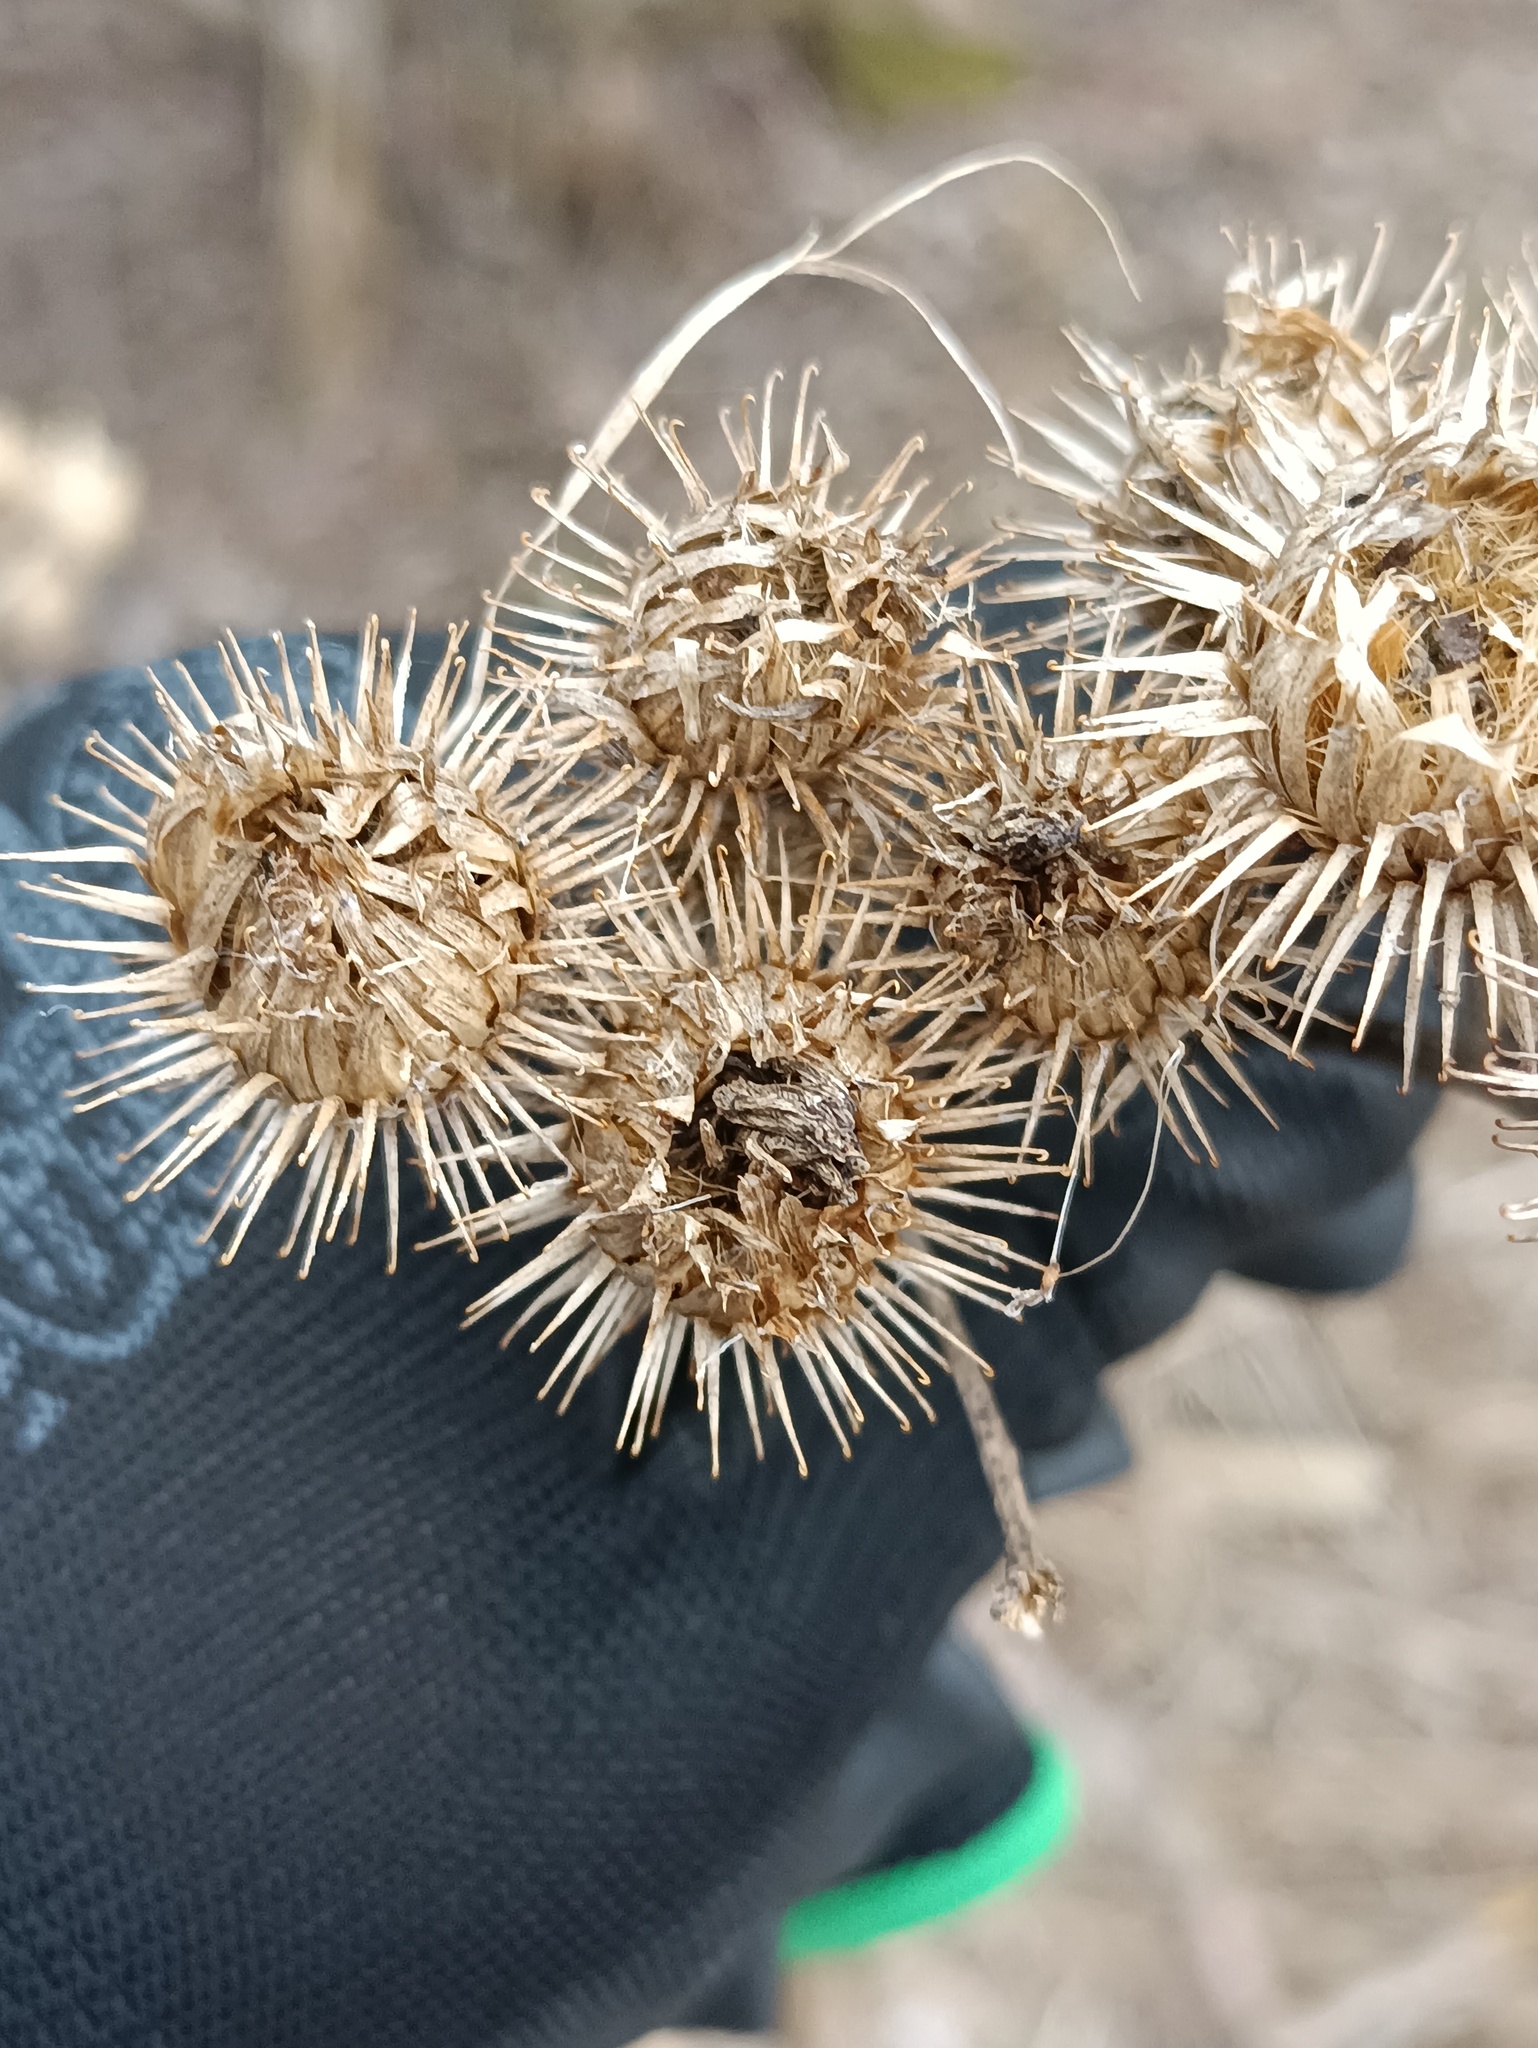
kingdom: Plantae
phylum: Tracheophyta
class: Magnoliopsida
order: Asterales
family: Asteraceae
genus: Arctium
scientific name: Arctium tomentosum
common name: Woolly burdock
